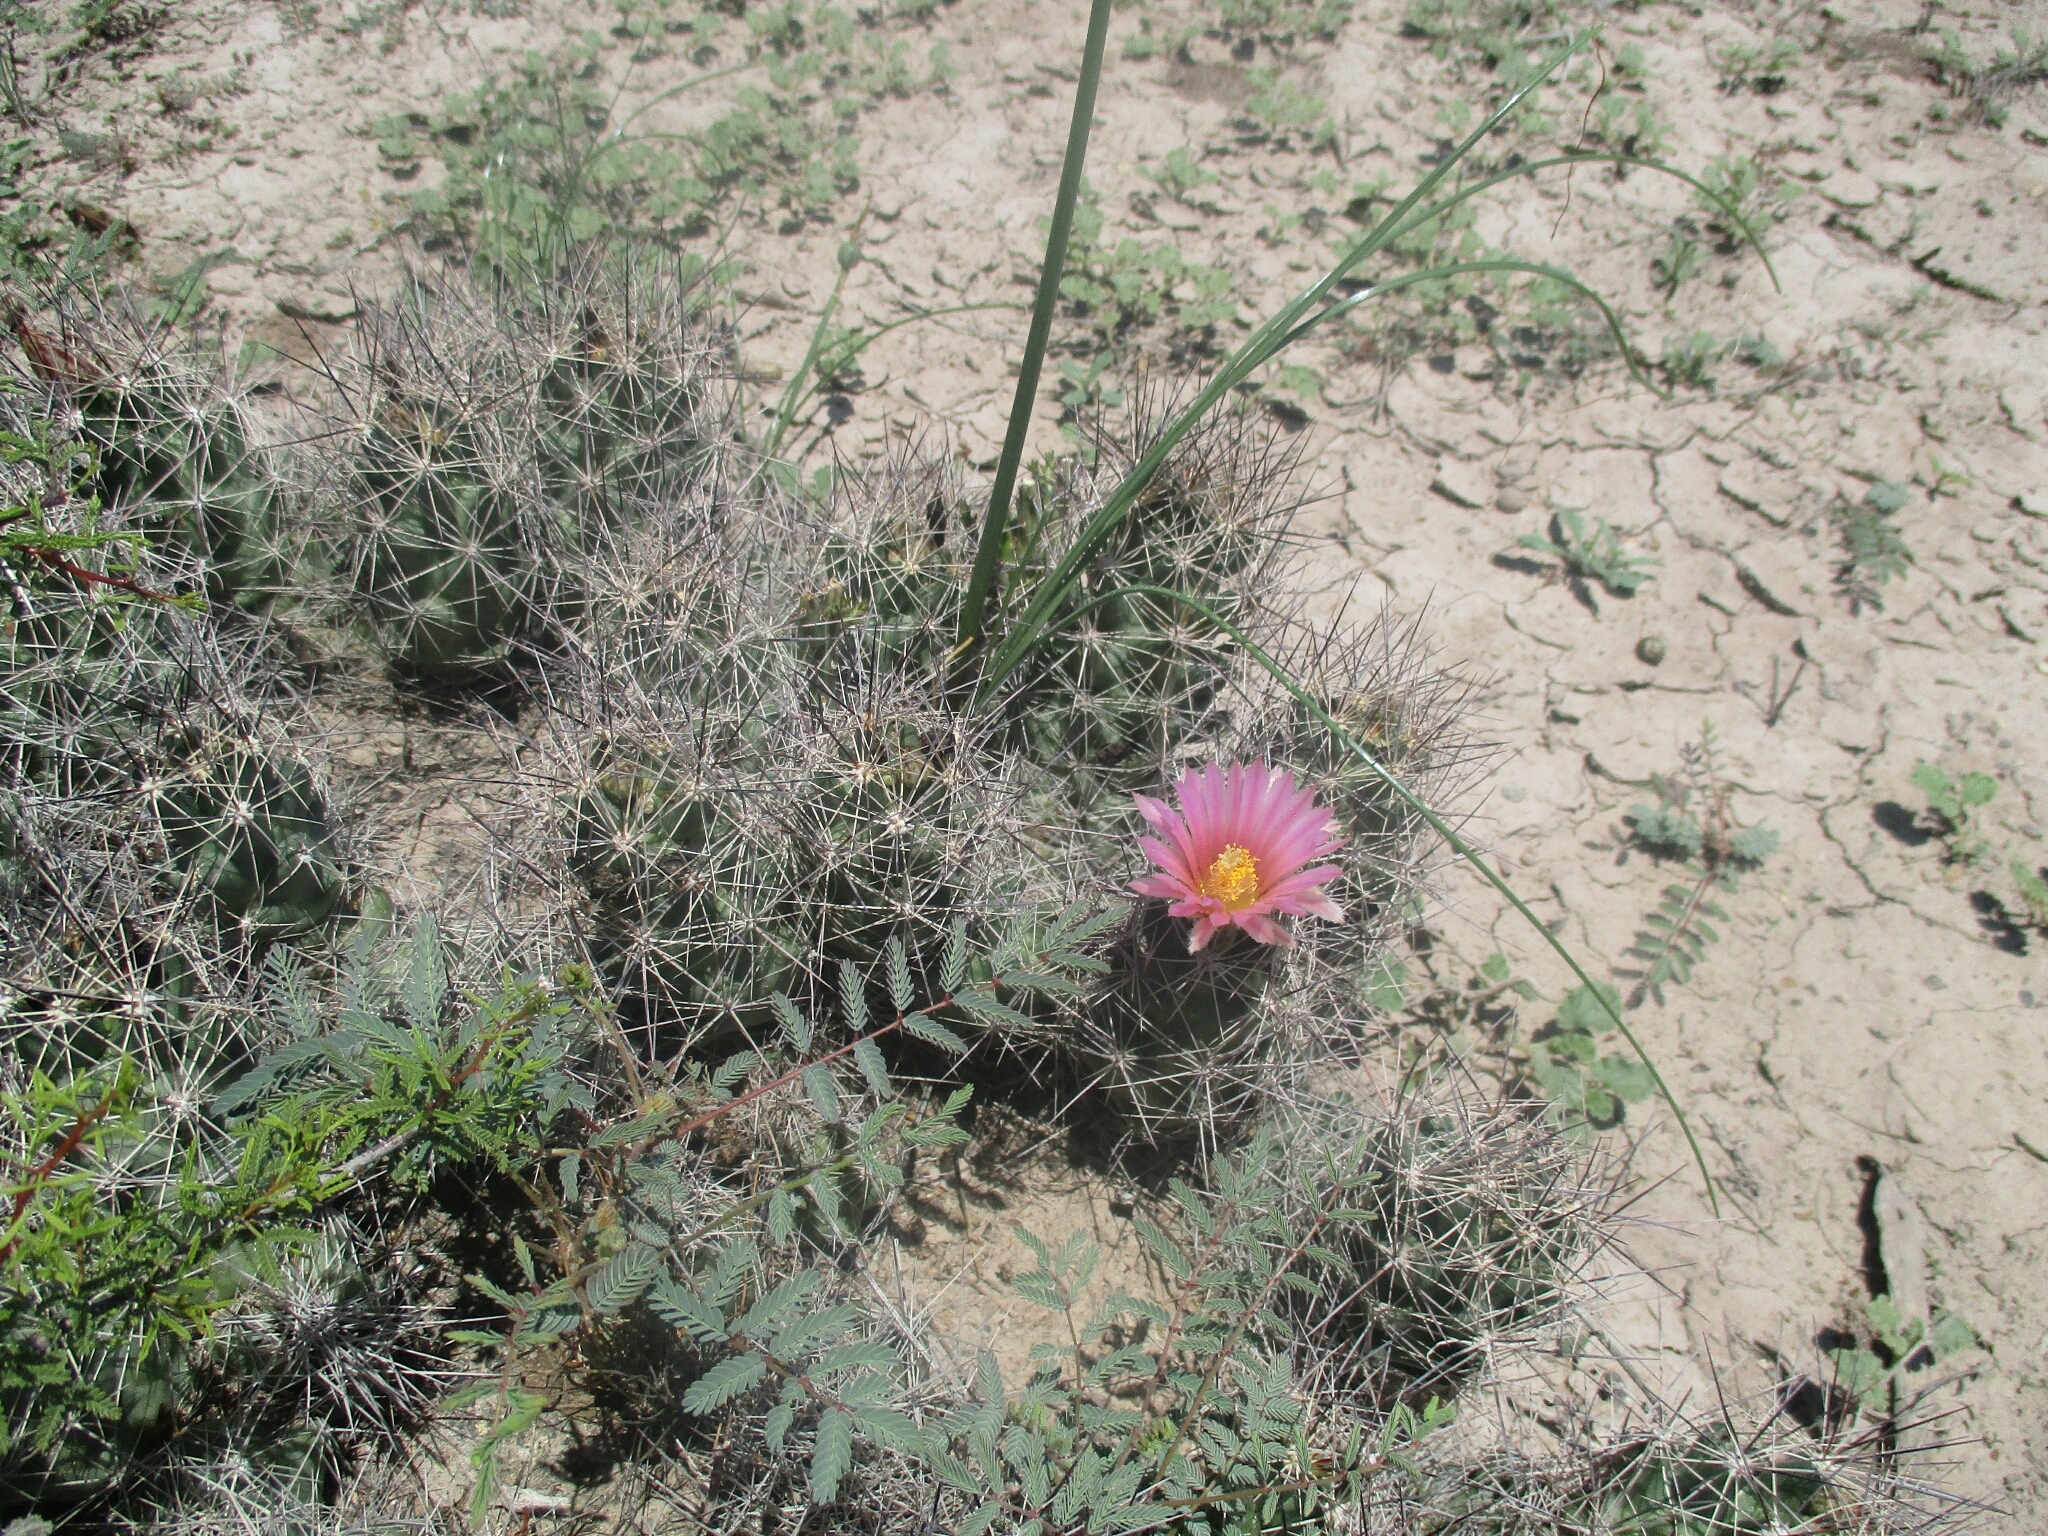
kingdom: Plantae
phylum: Tracheophyta
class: Magnoliopsida
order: Caryophyllales
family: Cactaceae
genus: Coryphantha
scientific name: Coryphantha macromeris
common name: Nipple beehive cactus
